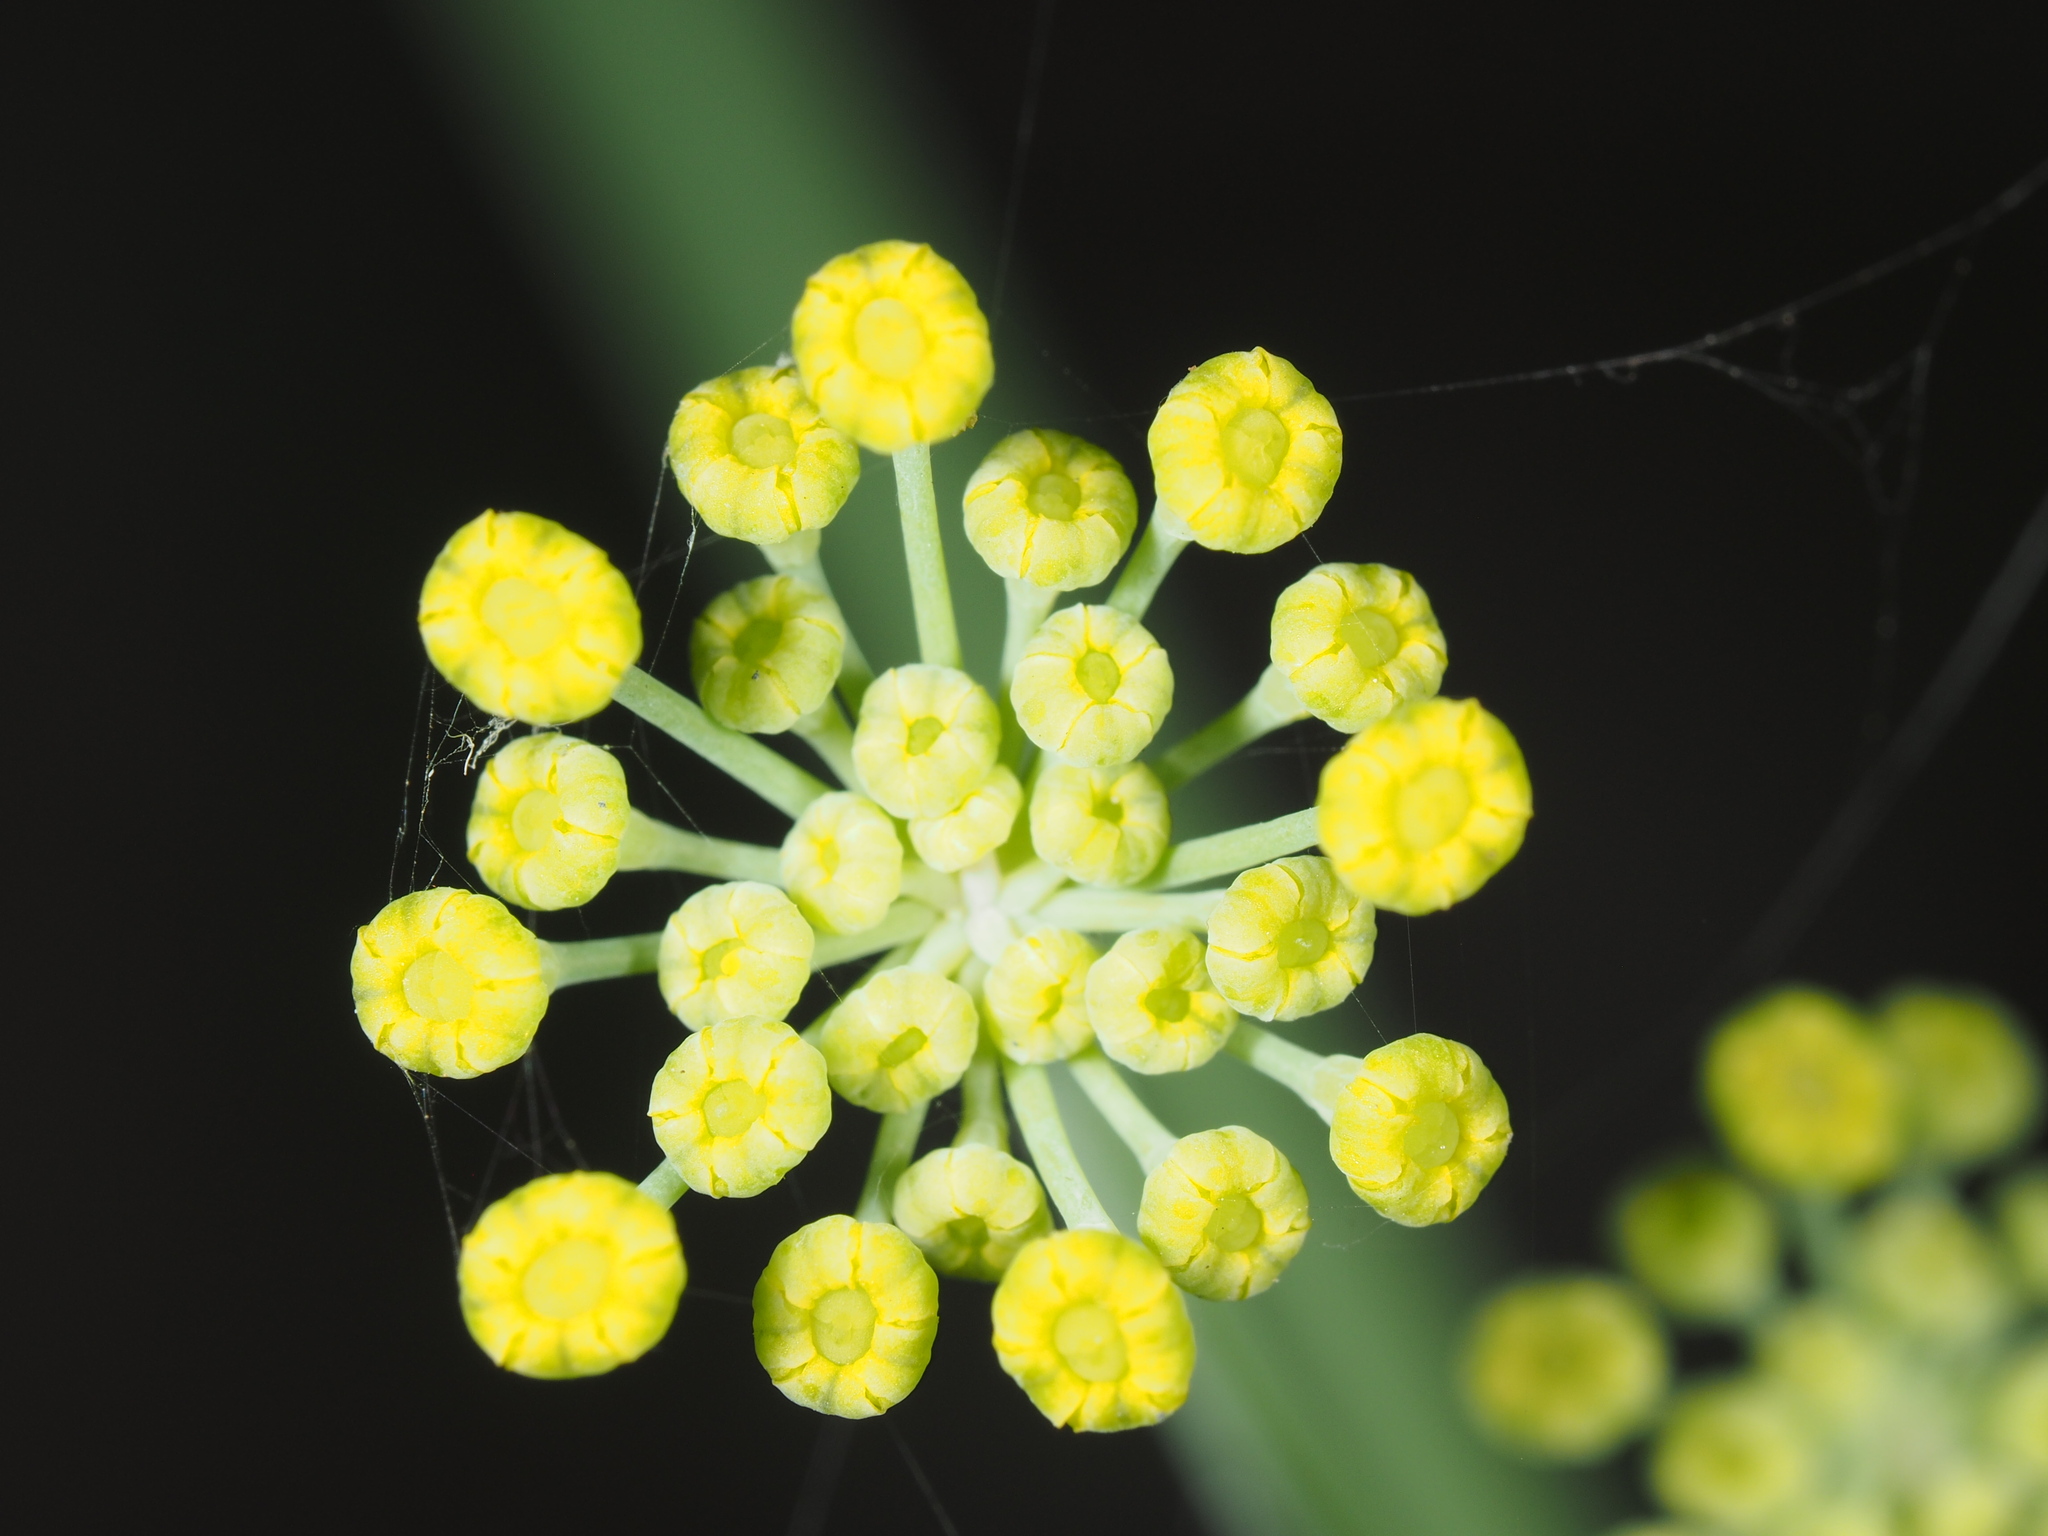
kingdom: Plantae
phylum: Tracheophyta
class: Magnoliopsida
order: Apiales
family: Apiaceae
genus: Foeniculum
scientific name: Foeniculum vulgare
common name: Fennel
